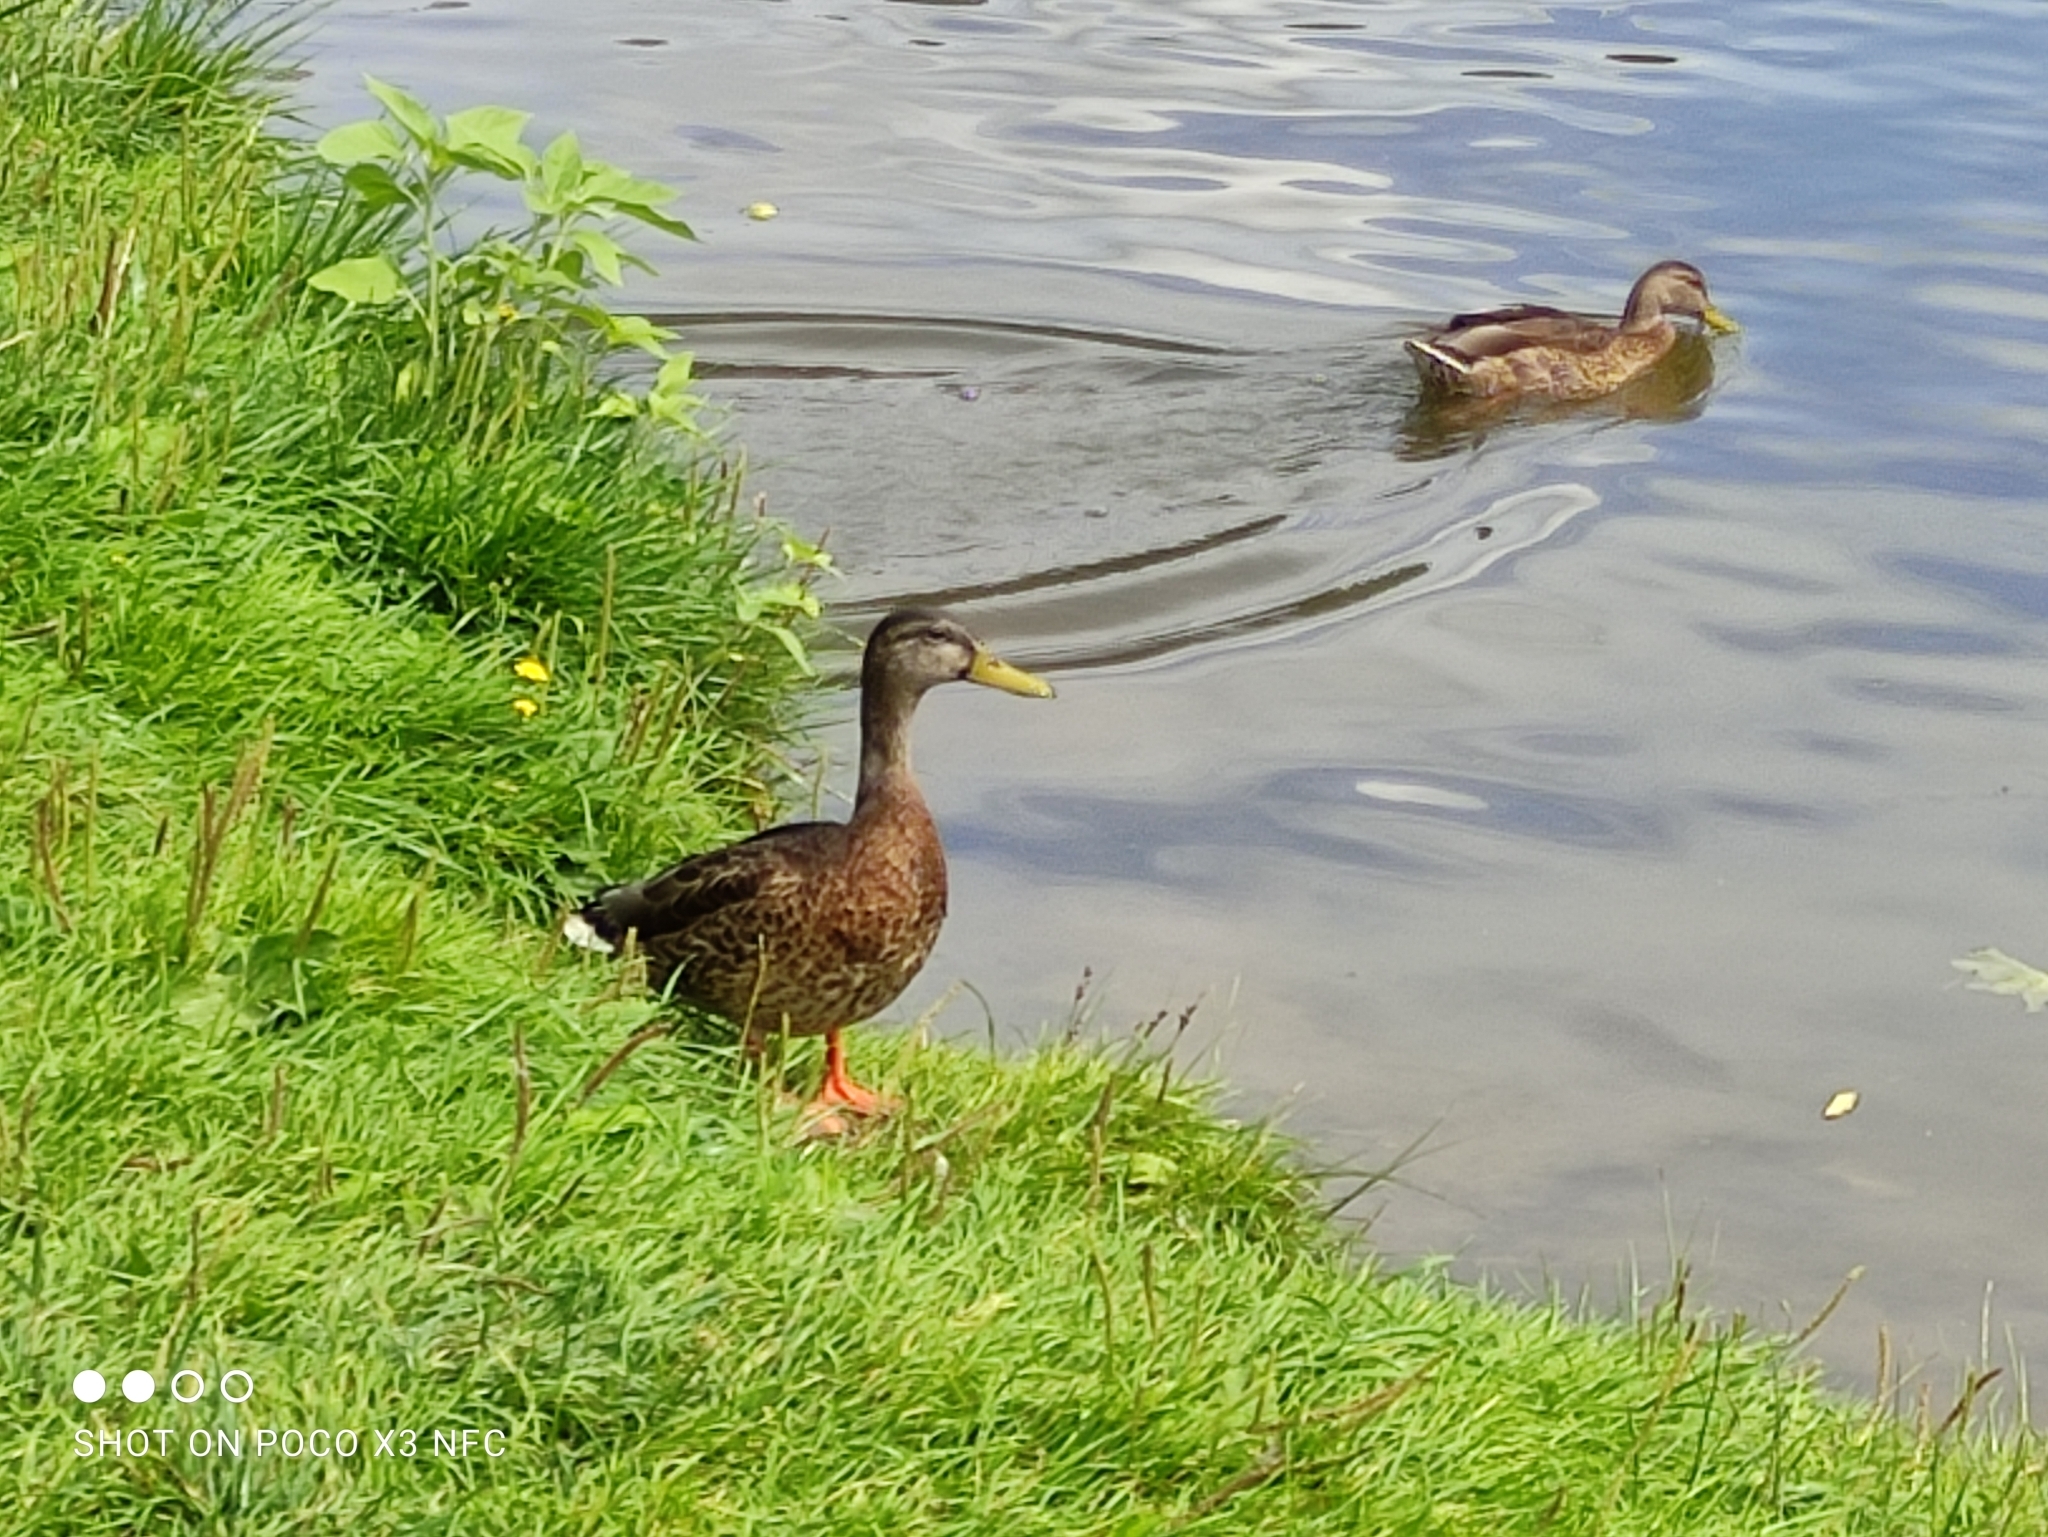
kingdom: Animalia
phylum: Chordata
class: Aves
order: Anseriformes
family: Anatidae
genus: Anas
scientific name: Anas platyrhynchos
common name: Mallard
